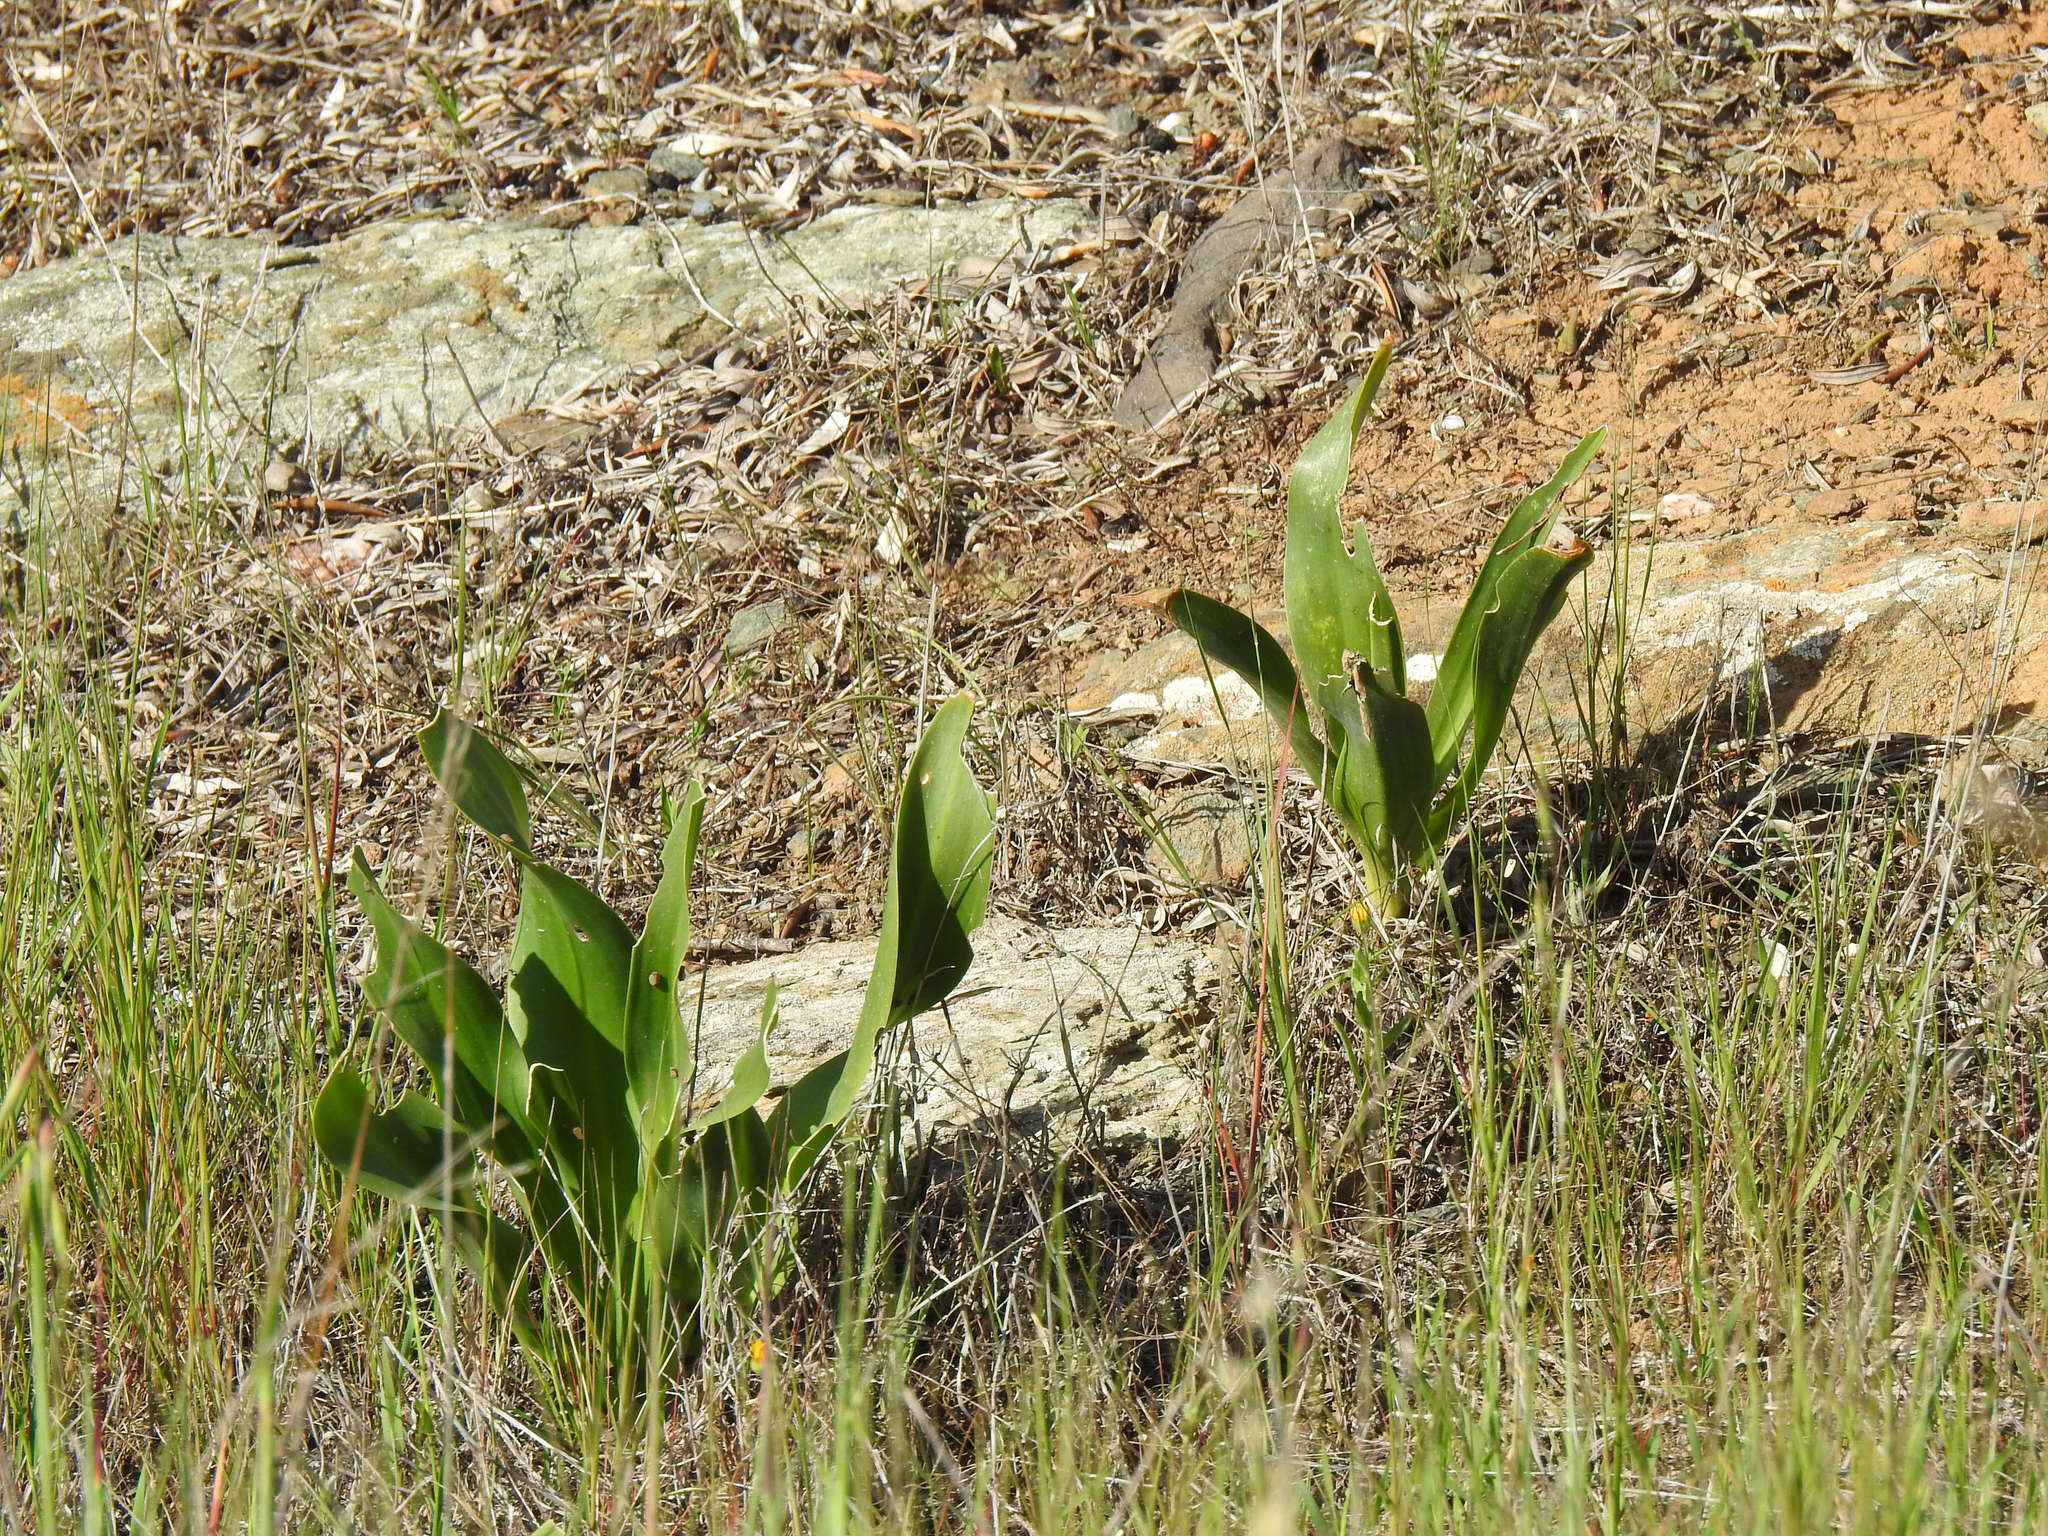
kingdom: Plantae
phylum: Tracheophyta
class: Liliopsida
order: Asparagales
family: Asparagaceae
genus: Drimia
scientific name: Drimia maritima
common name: Maritime squill
